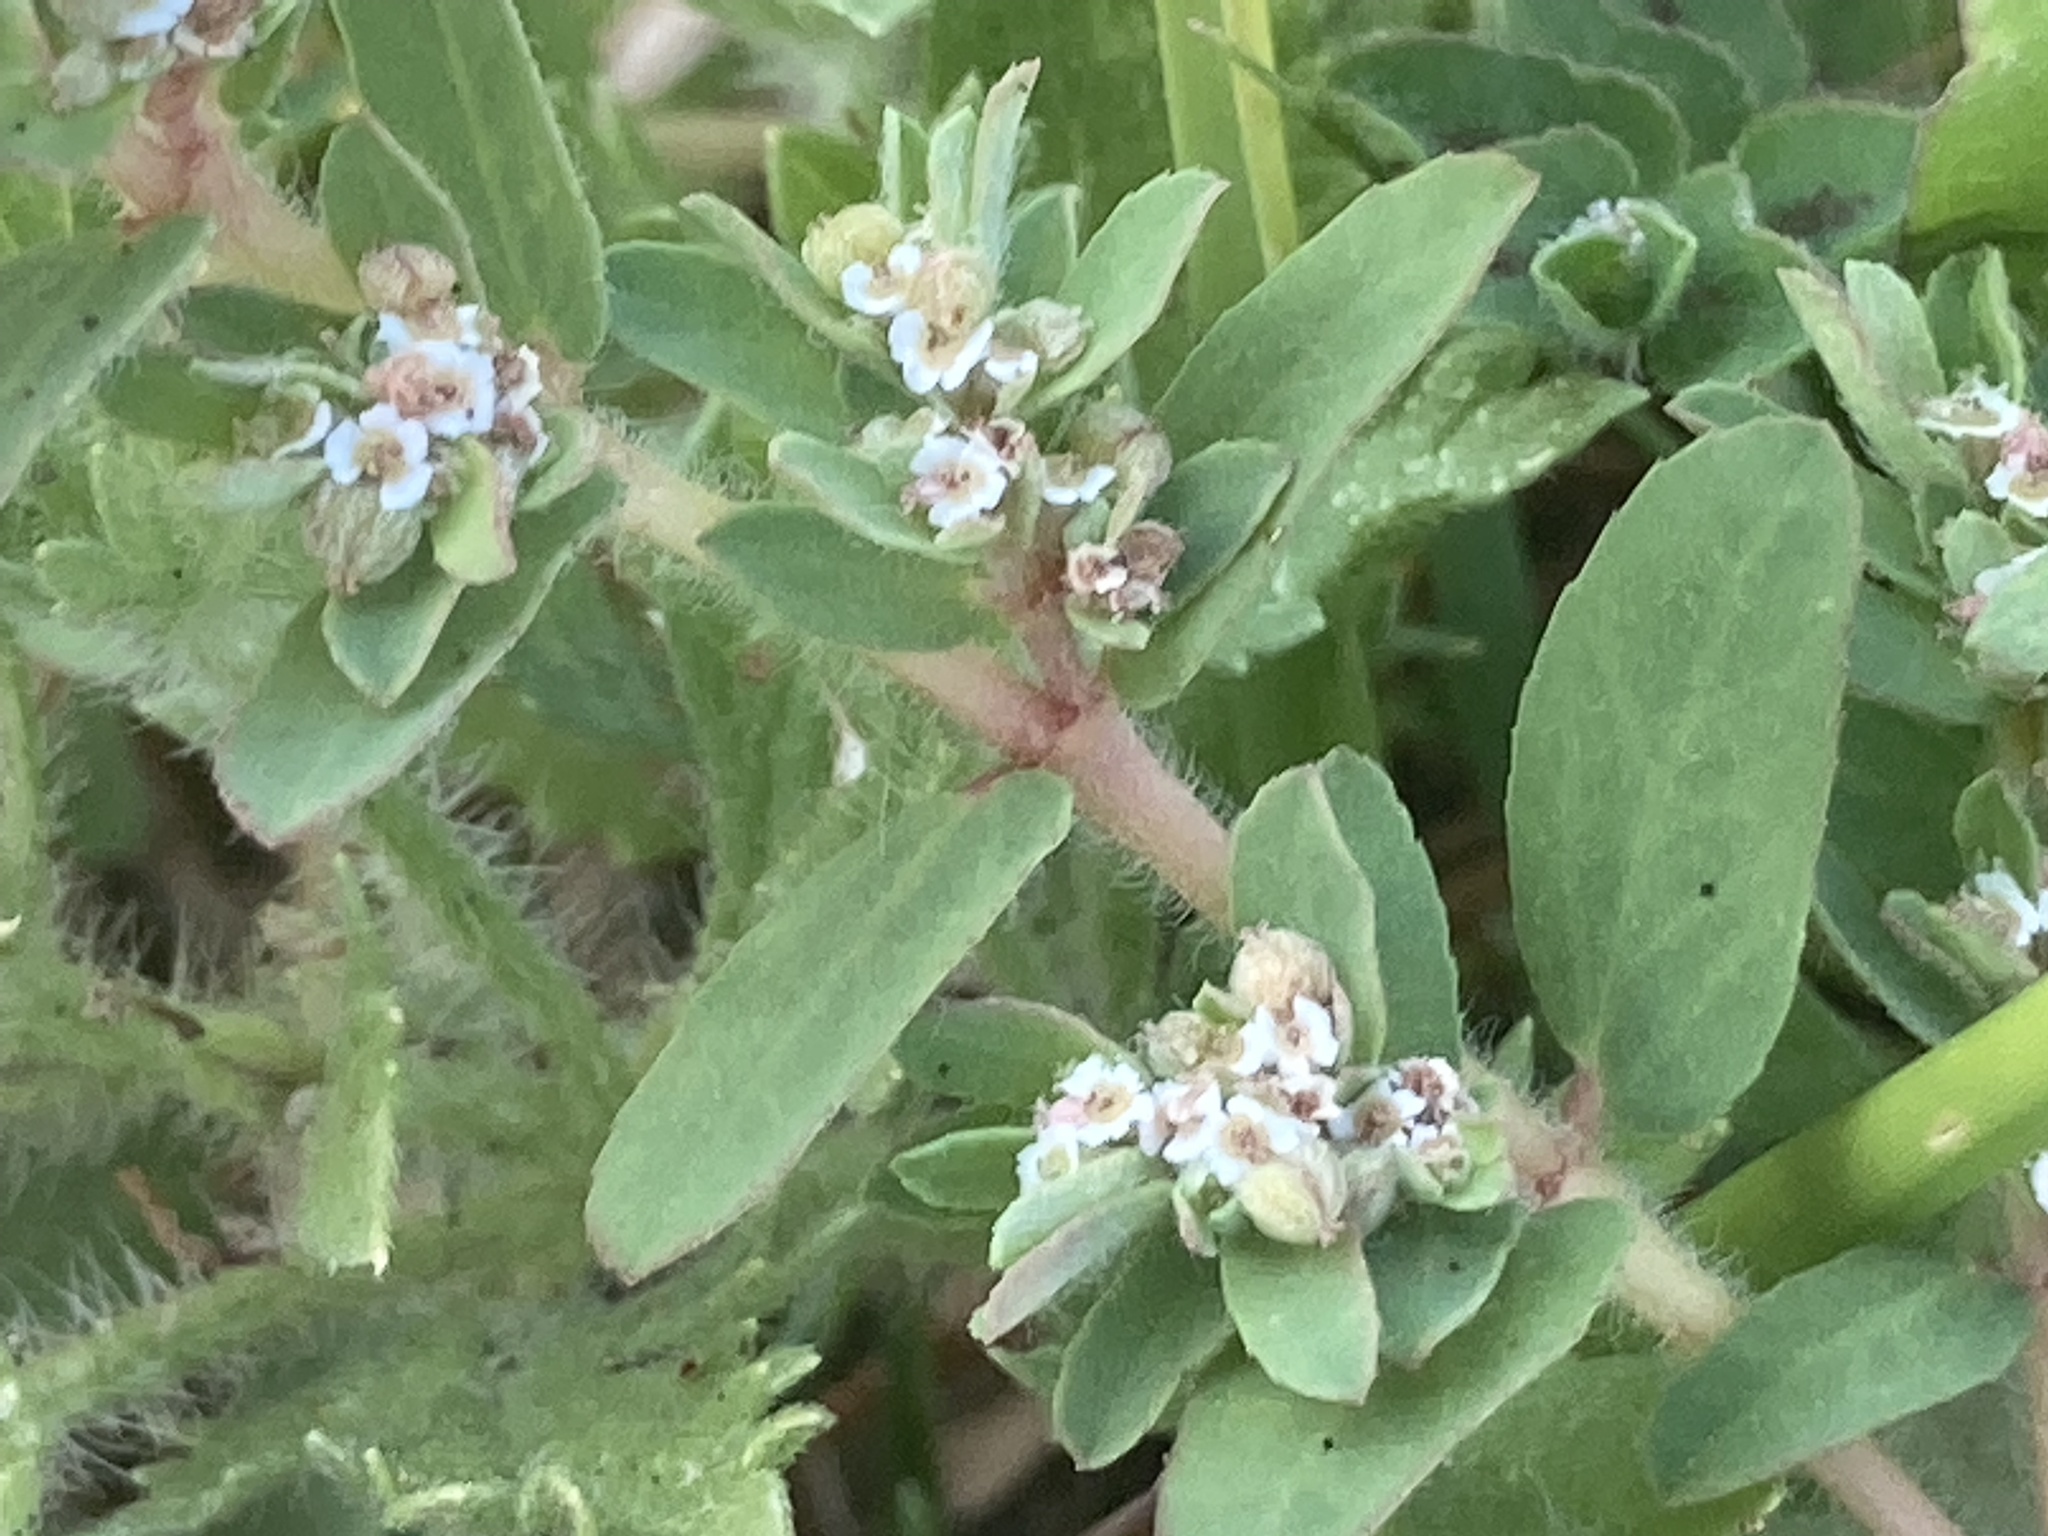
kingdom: Plantae
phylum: Tracheophyta
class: Magnoliopsida
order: Malpighiales
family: Euphorbiaceae
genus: Euphorbia
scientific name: Euphorbia maculata
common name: Spotted spurge
